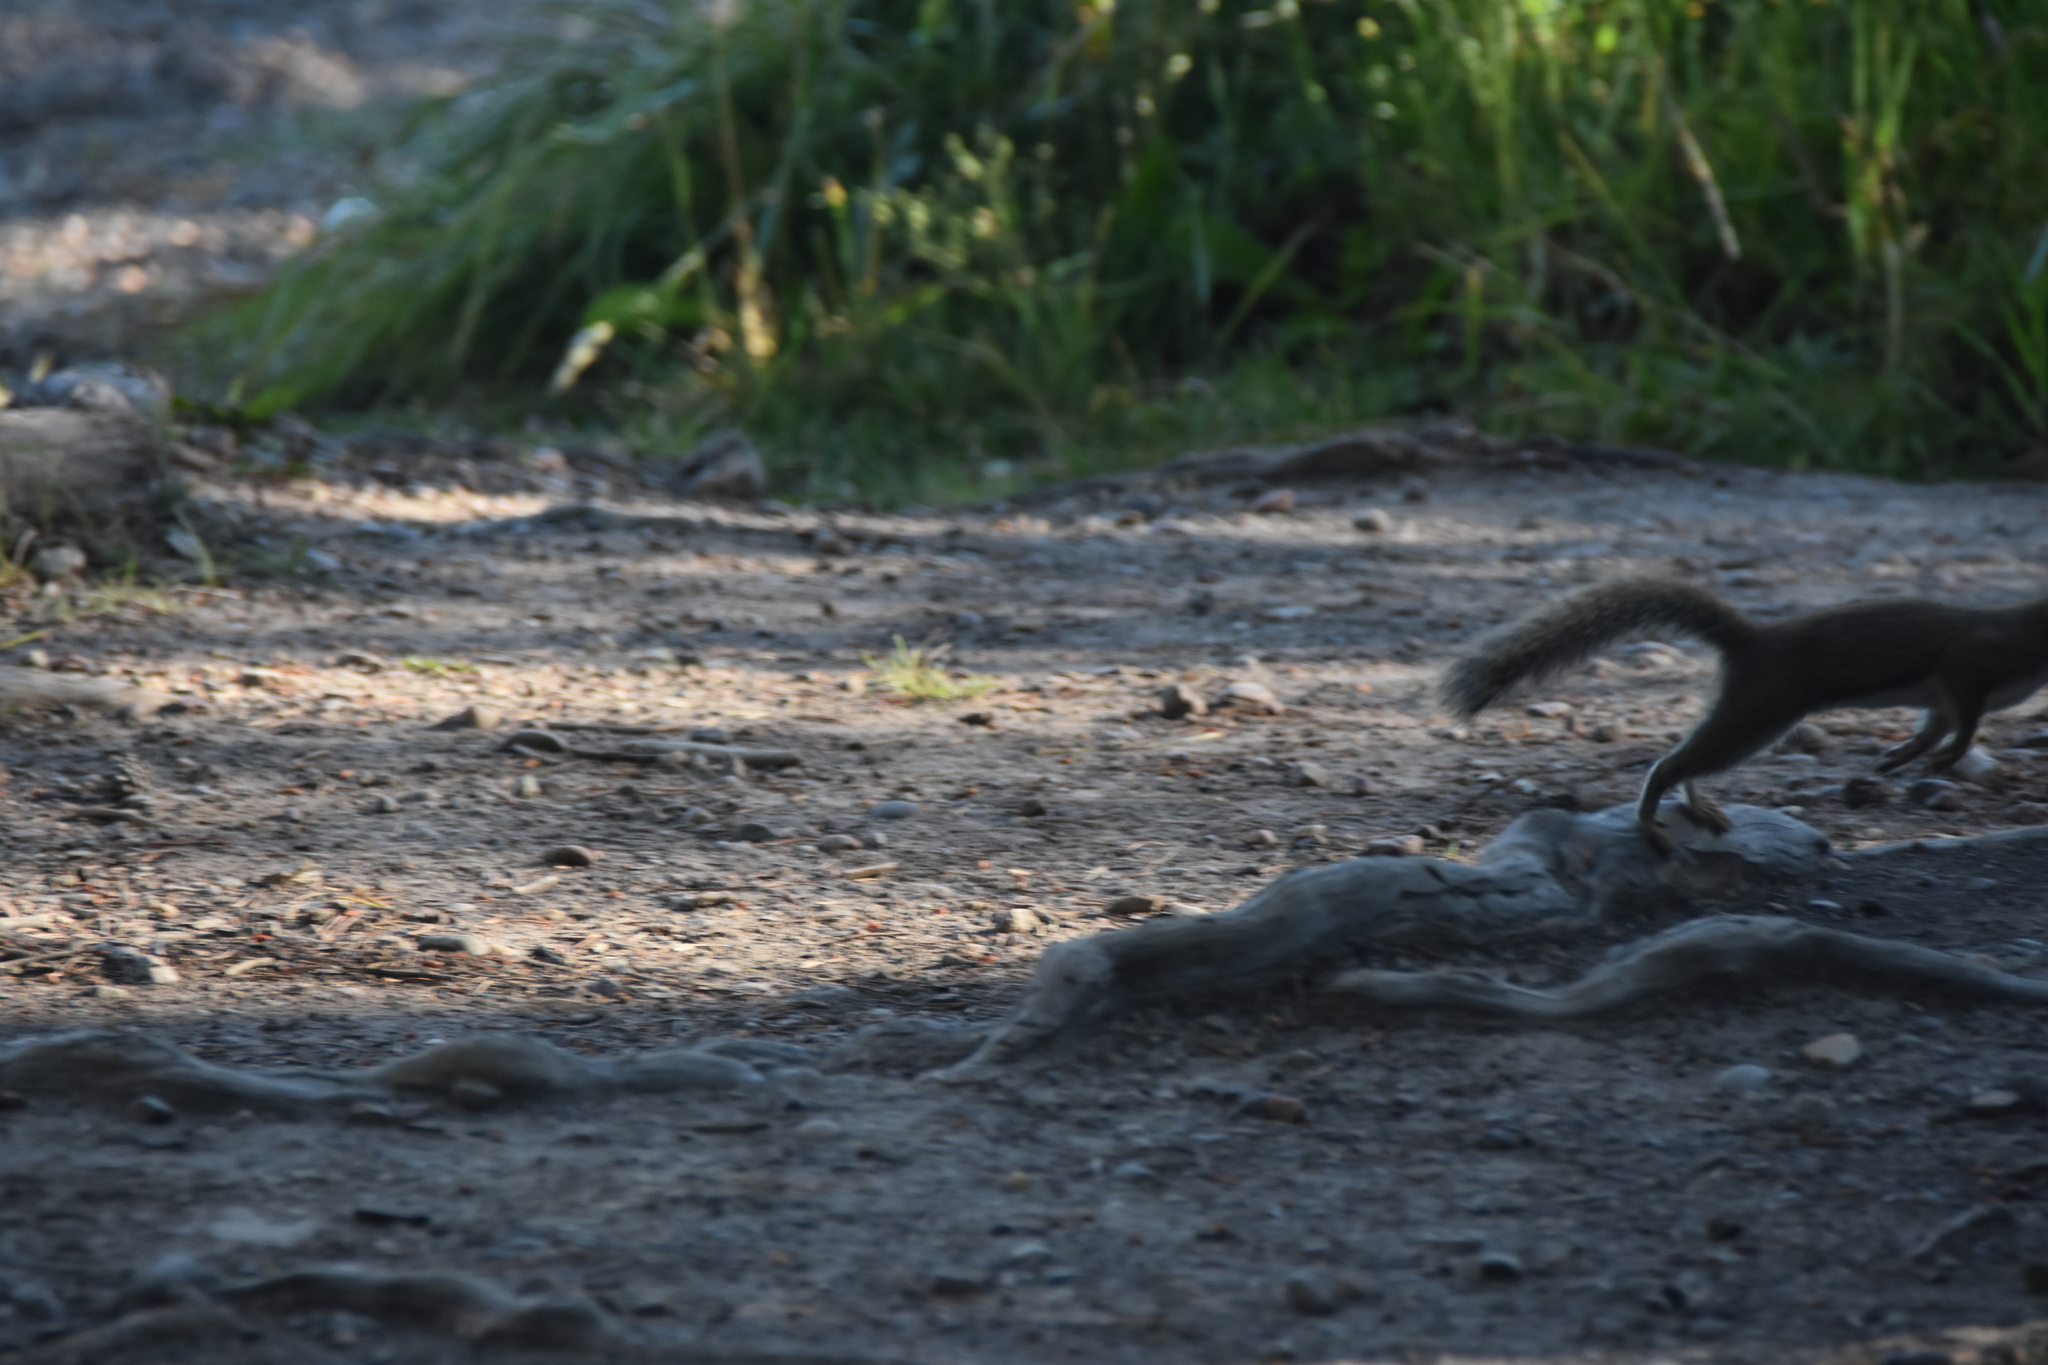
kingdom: Animalia
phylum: Chordata
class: Mammalia
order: Rodentia
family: Sciuridae
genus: Tamiasciurus
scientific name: Tamiasciurus hudsonicus
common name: Red squirrel
